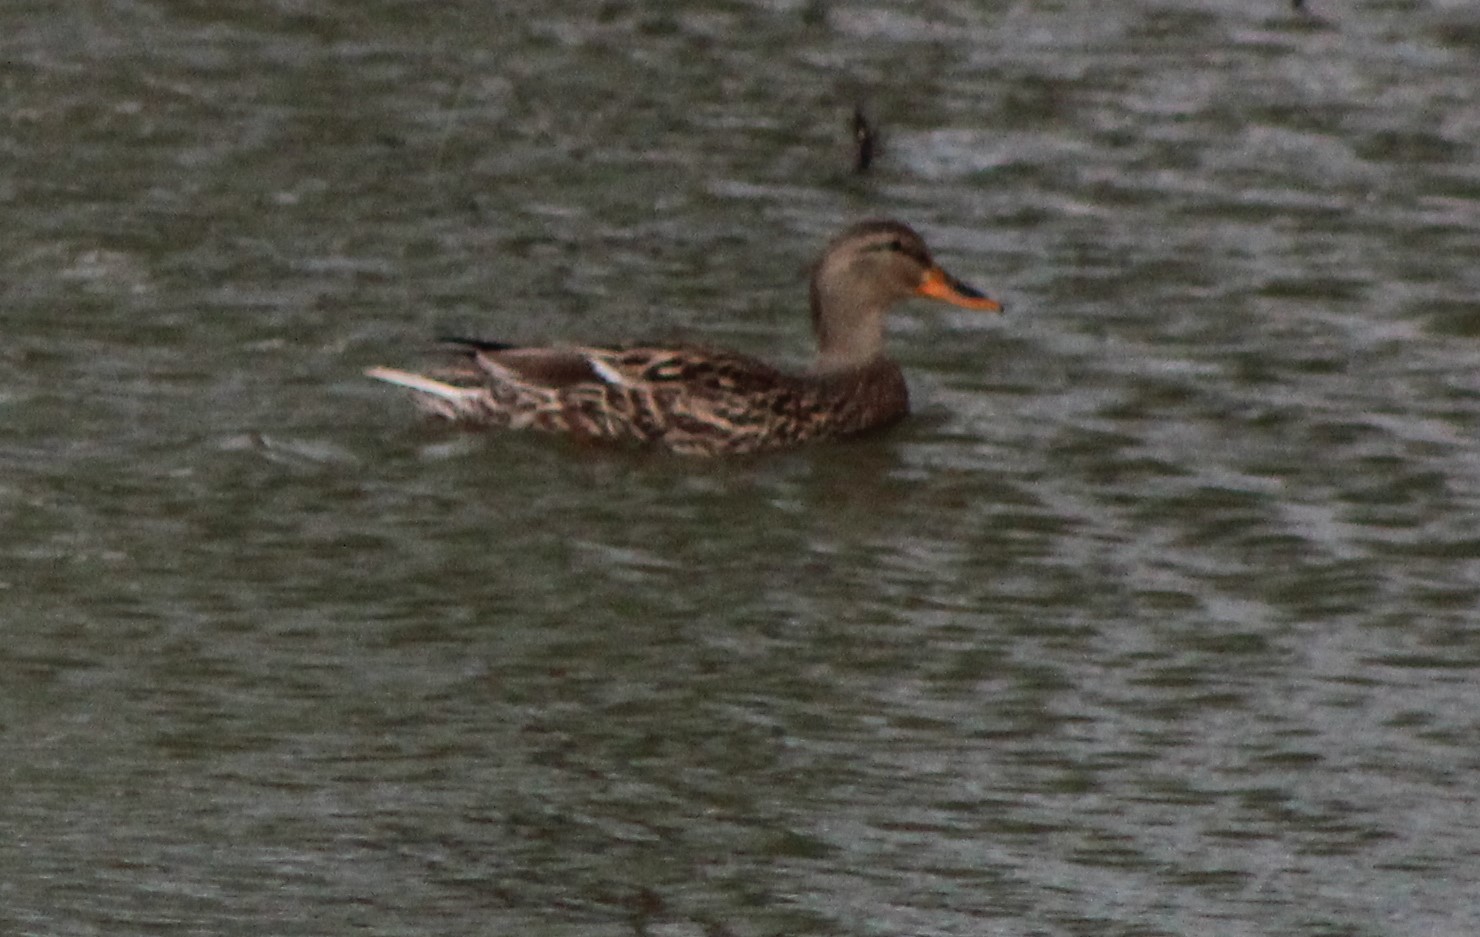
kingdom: Animalia
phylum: Chordata
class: Aves
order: Anseriformes
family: Anatidae
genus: Anas
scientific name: Anas platyrhynchos
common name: Mallard
